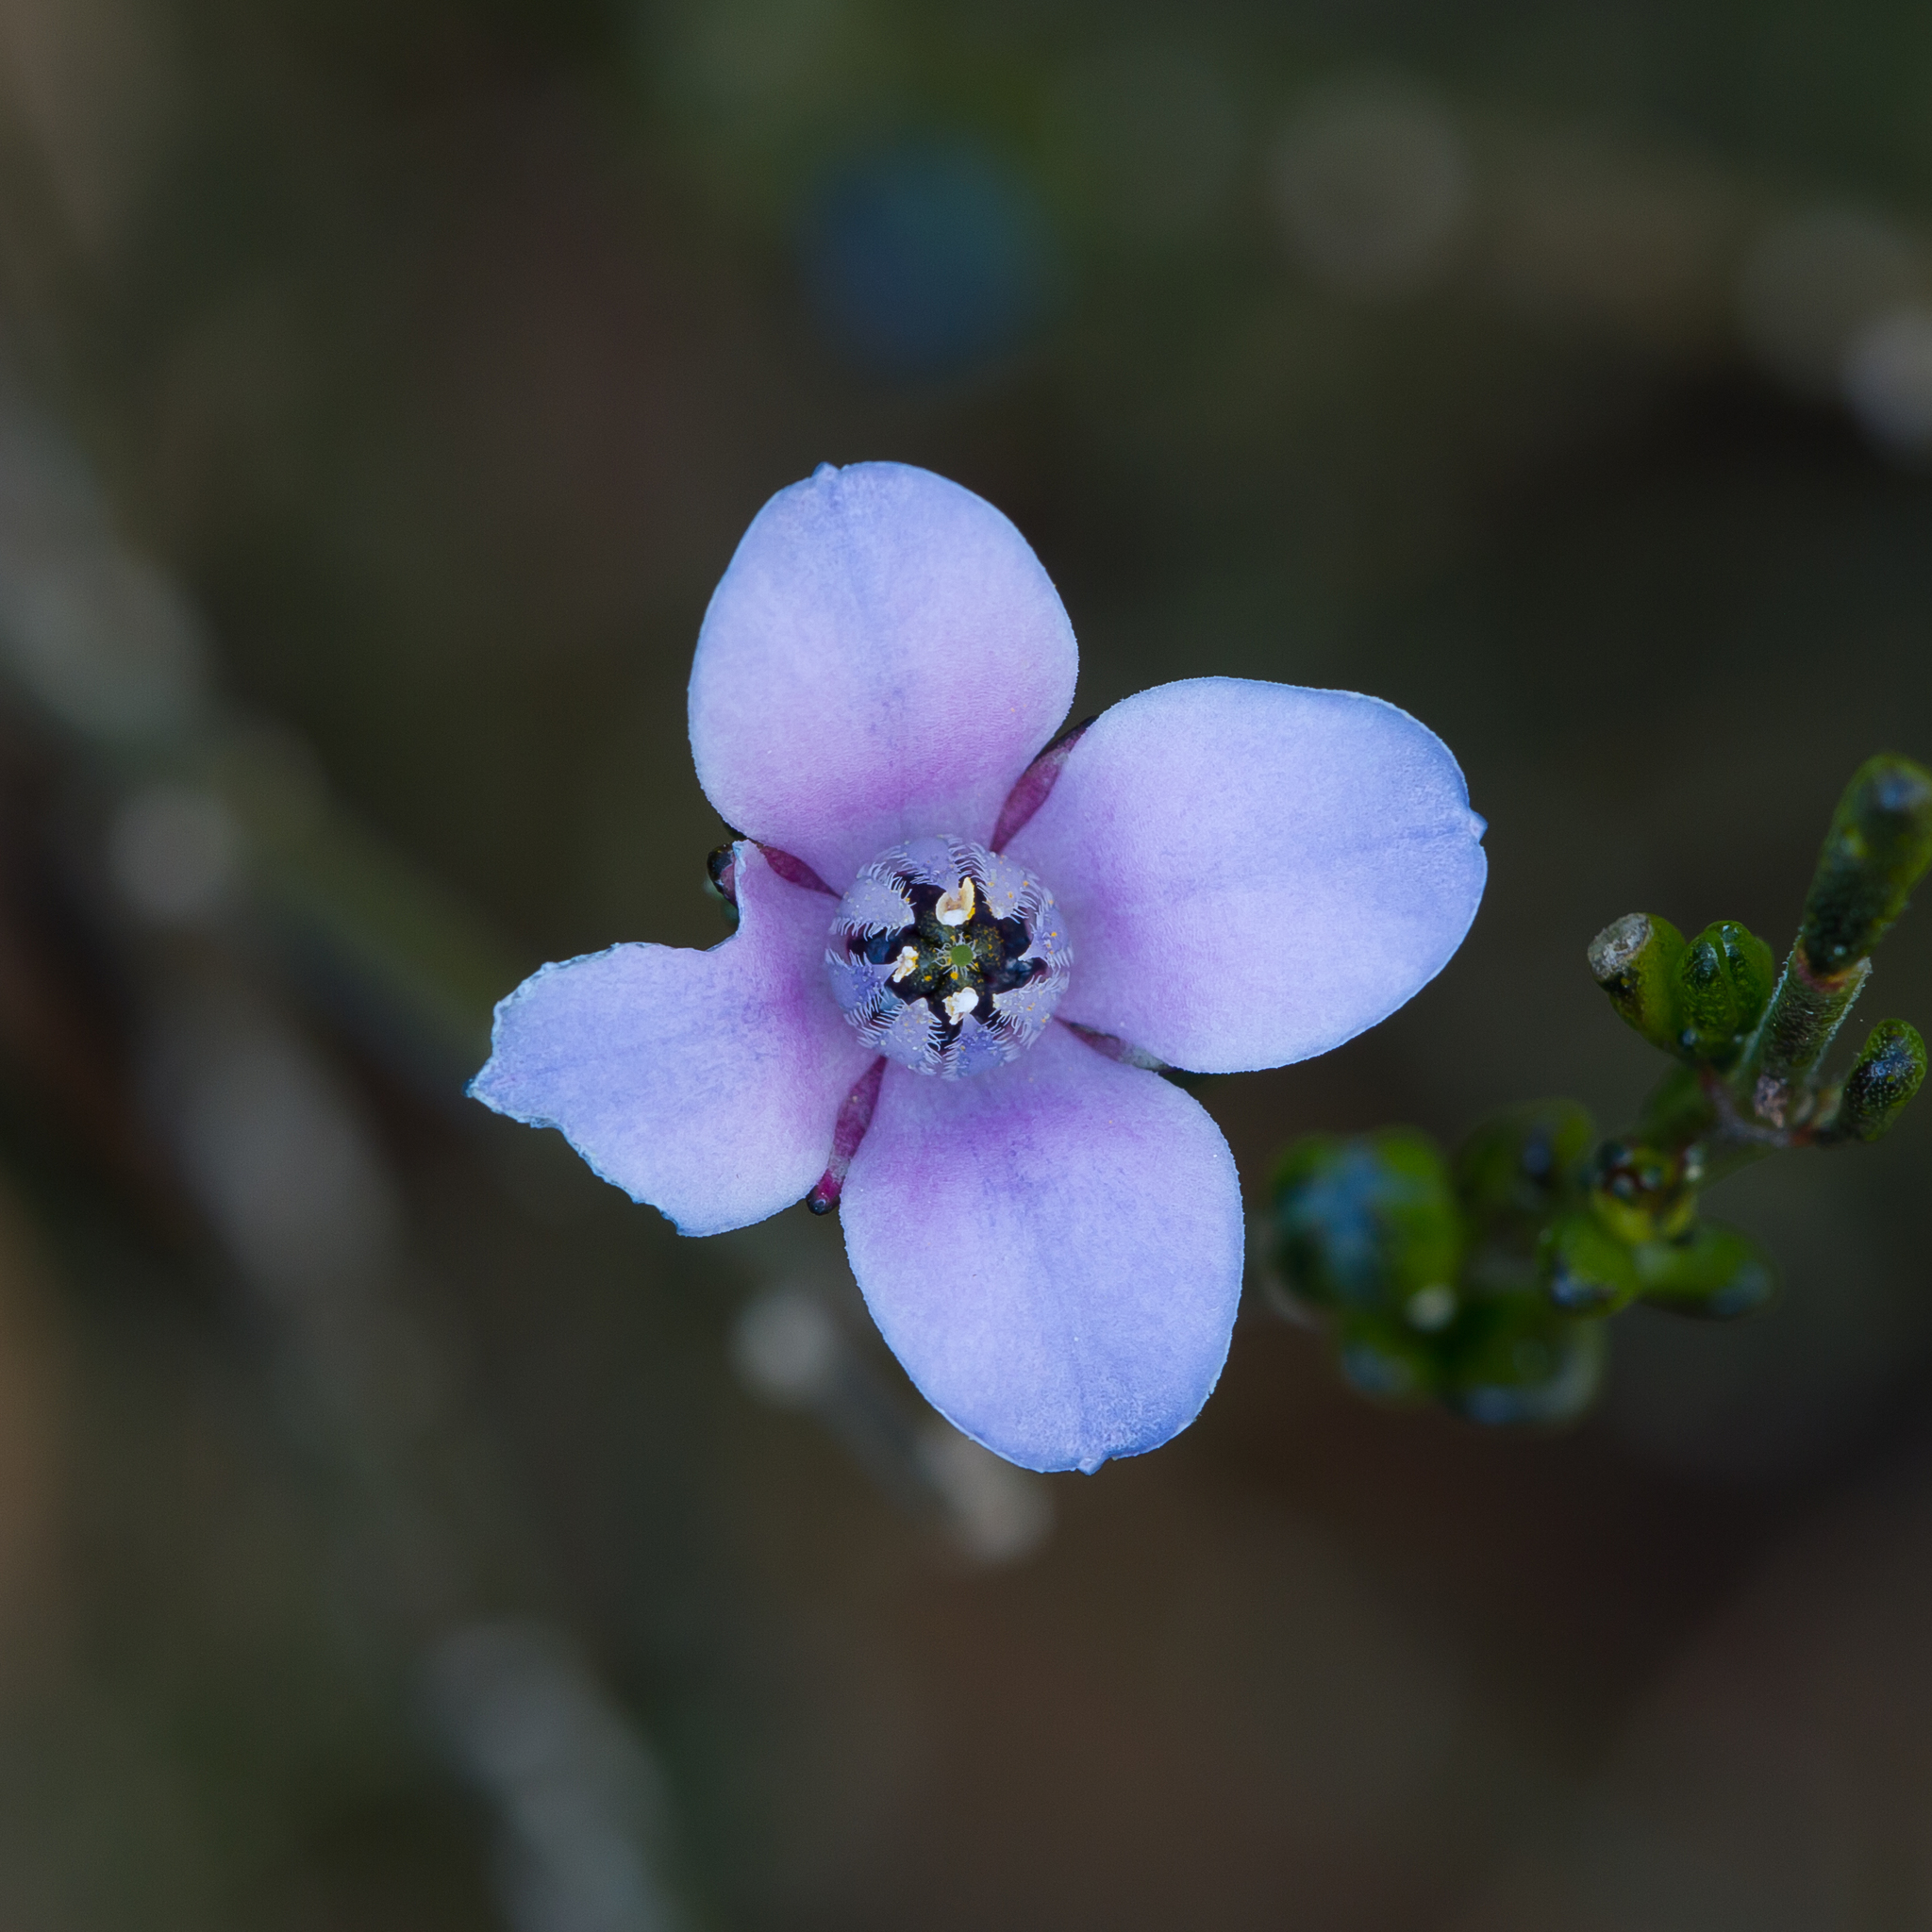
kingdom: Plantae
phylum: Tracheophyta
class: Magnoliopsida
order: Sapindales
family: Rutaceae
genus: Cyanothamnus
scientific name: Cyanothamnus coerulescens
